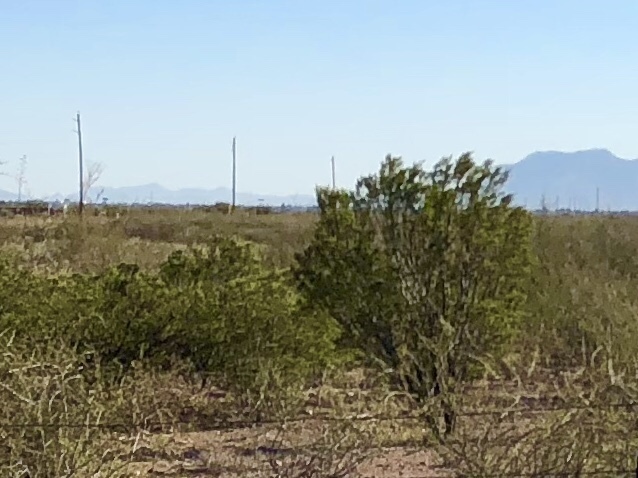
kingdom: Plantae
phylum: Tracheophyta
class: Magnoliopsida
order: Zygophyllales
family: Zygophyllaceae
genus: Larrea
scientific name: Larrea tridentata
